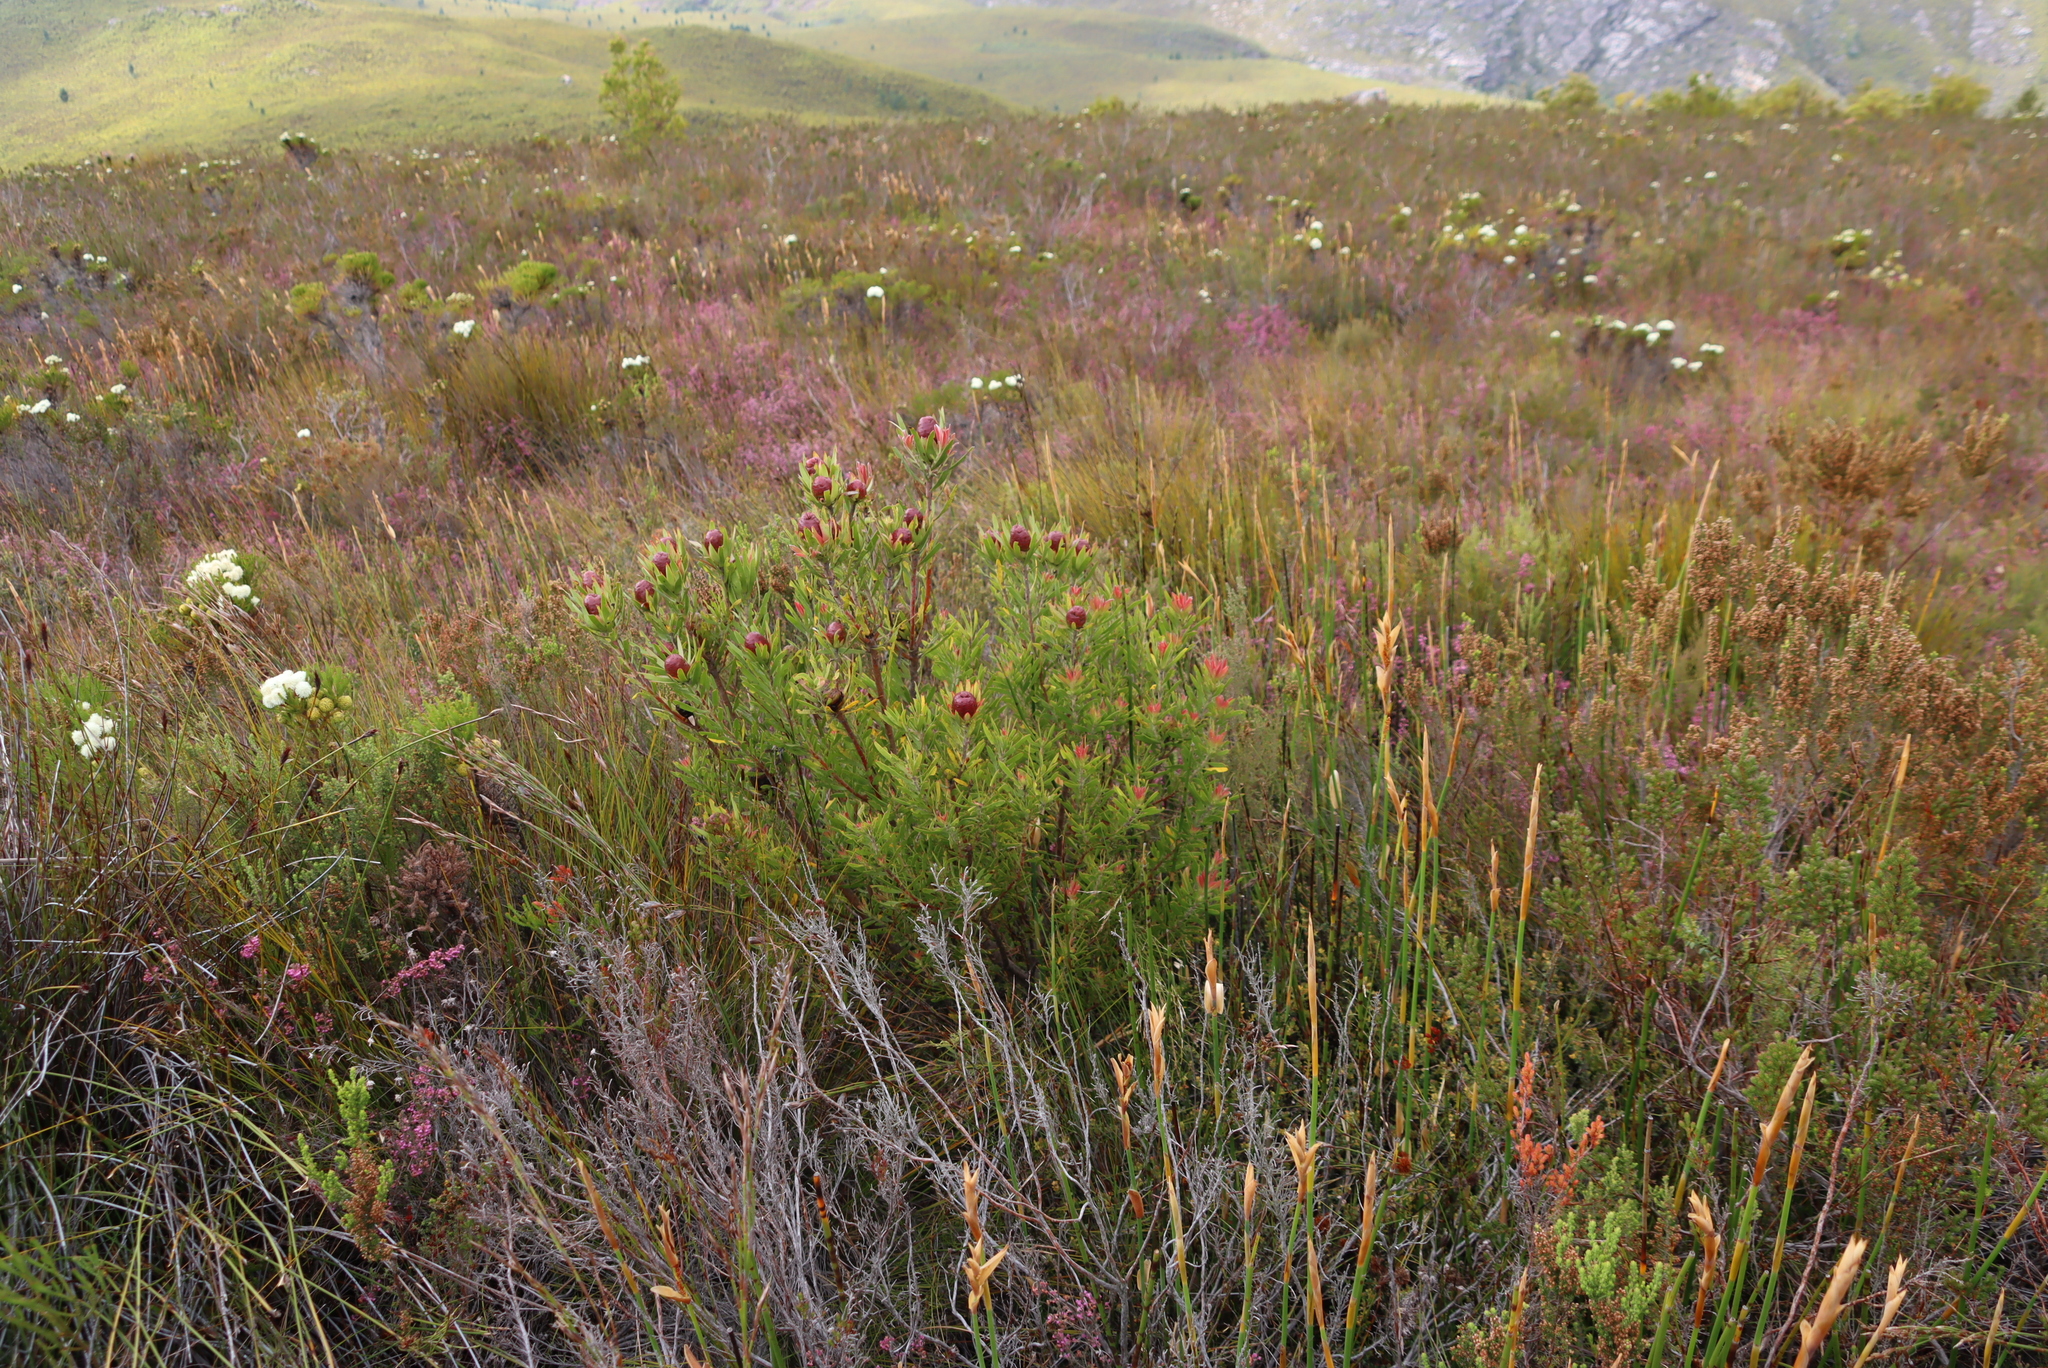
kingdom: Plantae
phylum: Tracheophyta
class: Magnoliopsida
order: Proteales
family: Proteaceae
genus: Leucadendron
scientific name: Leucadendron spissifolium
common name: Spear-leaf conebush
